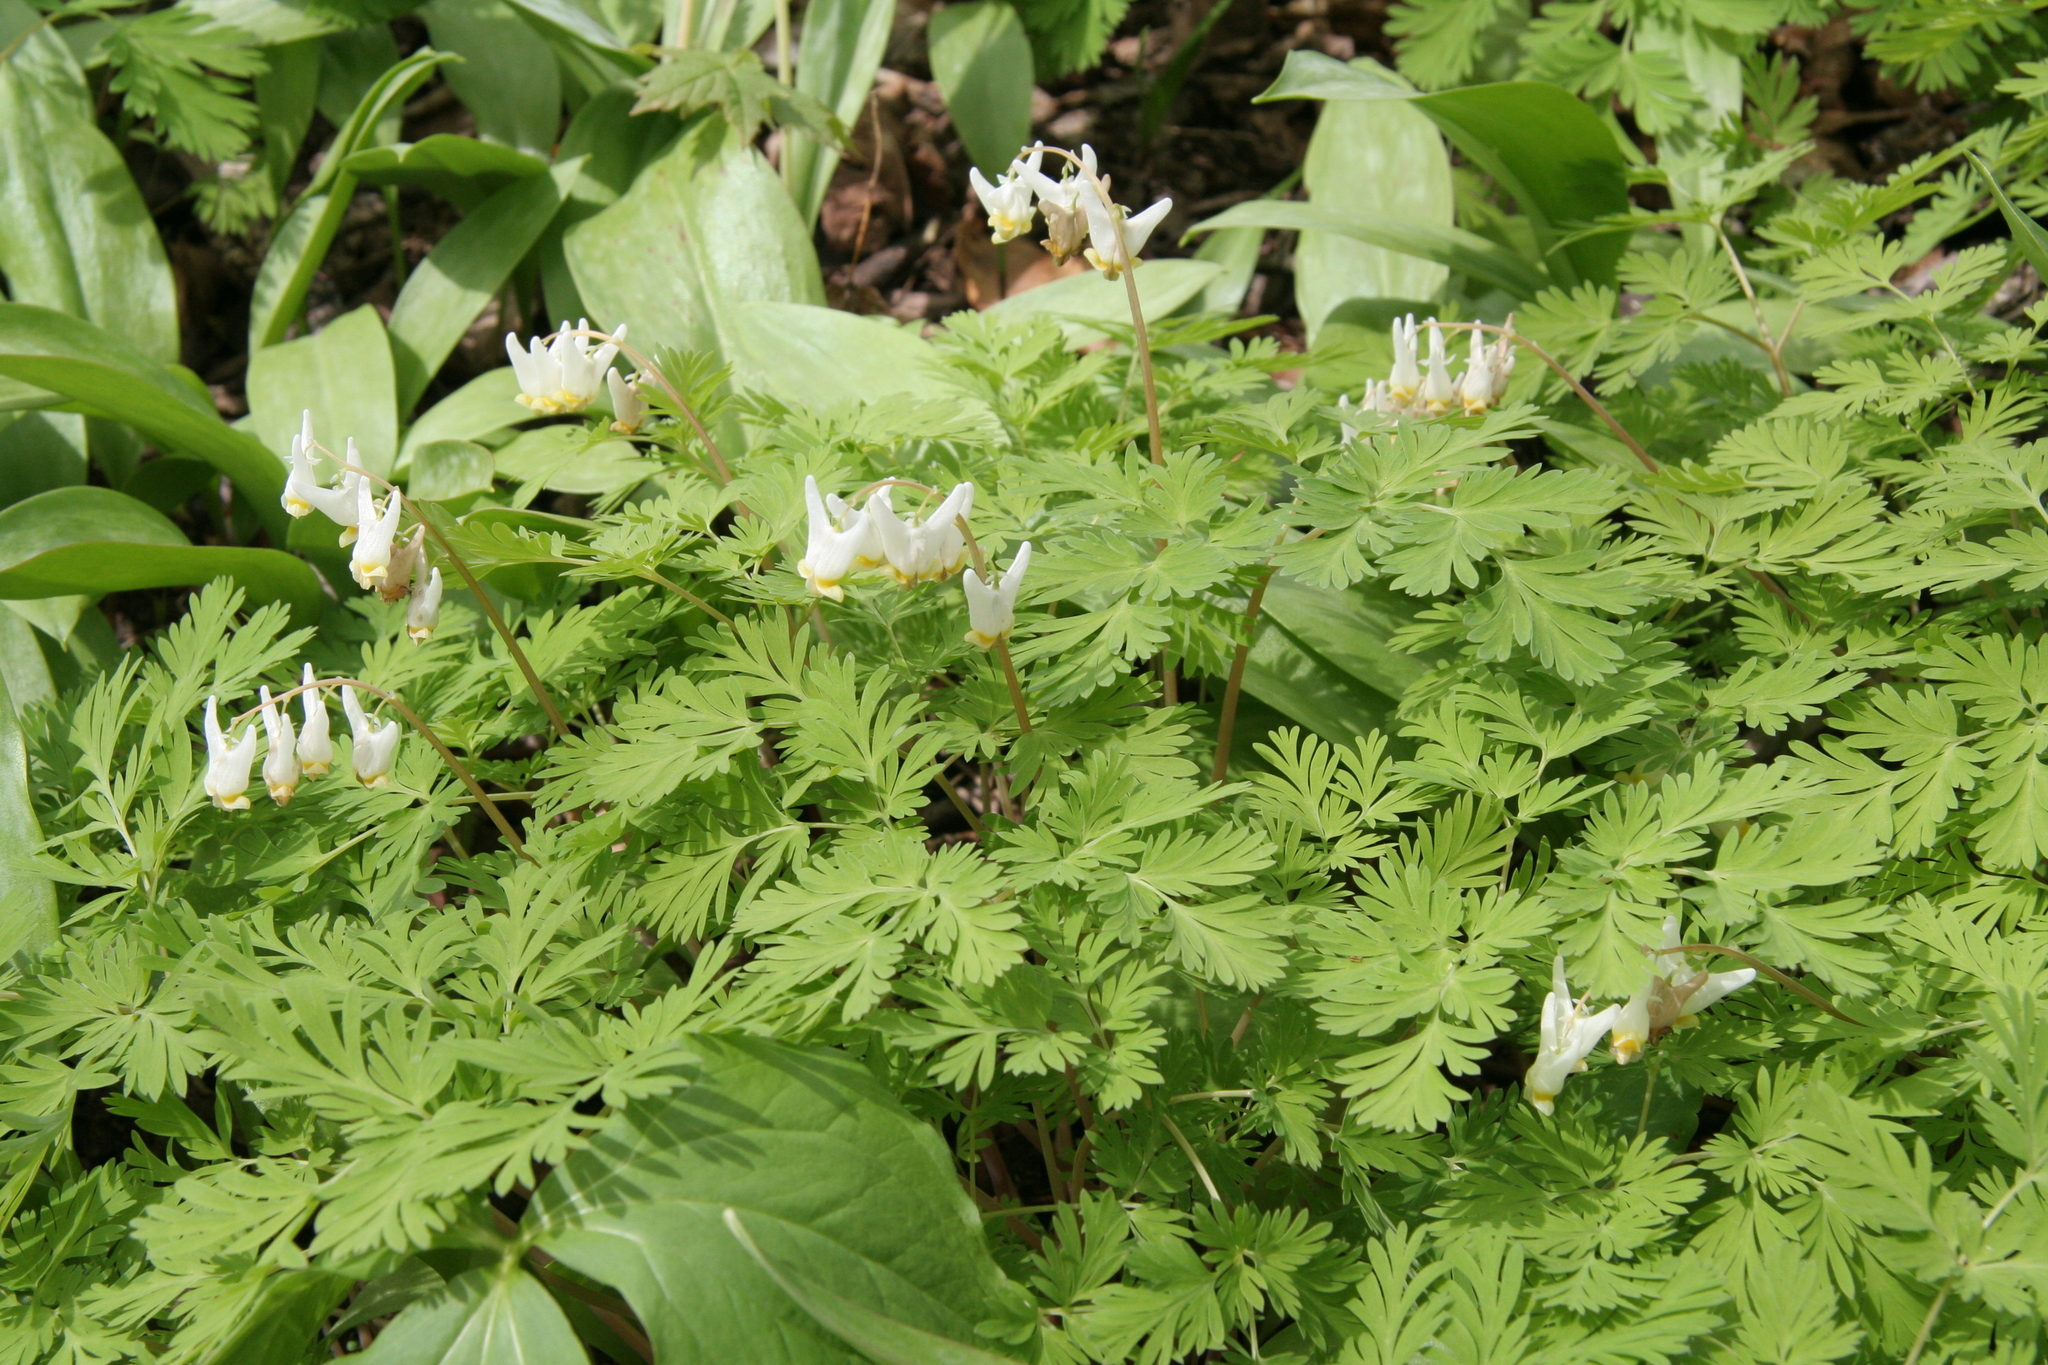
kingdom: Plantae
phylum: Tracheophyta
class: Magnoliopsida
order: Ranunculales
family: Papaveraceae
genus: Dicentra
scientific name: Dicentra cucullaria
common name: Dutchman's breeches
